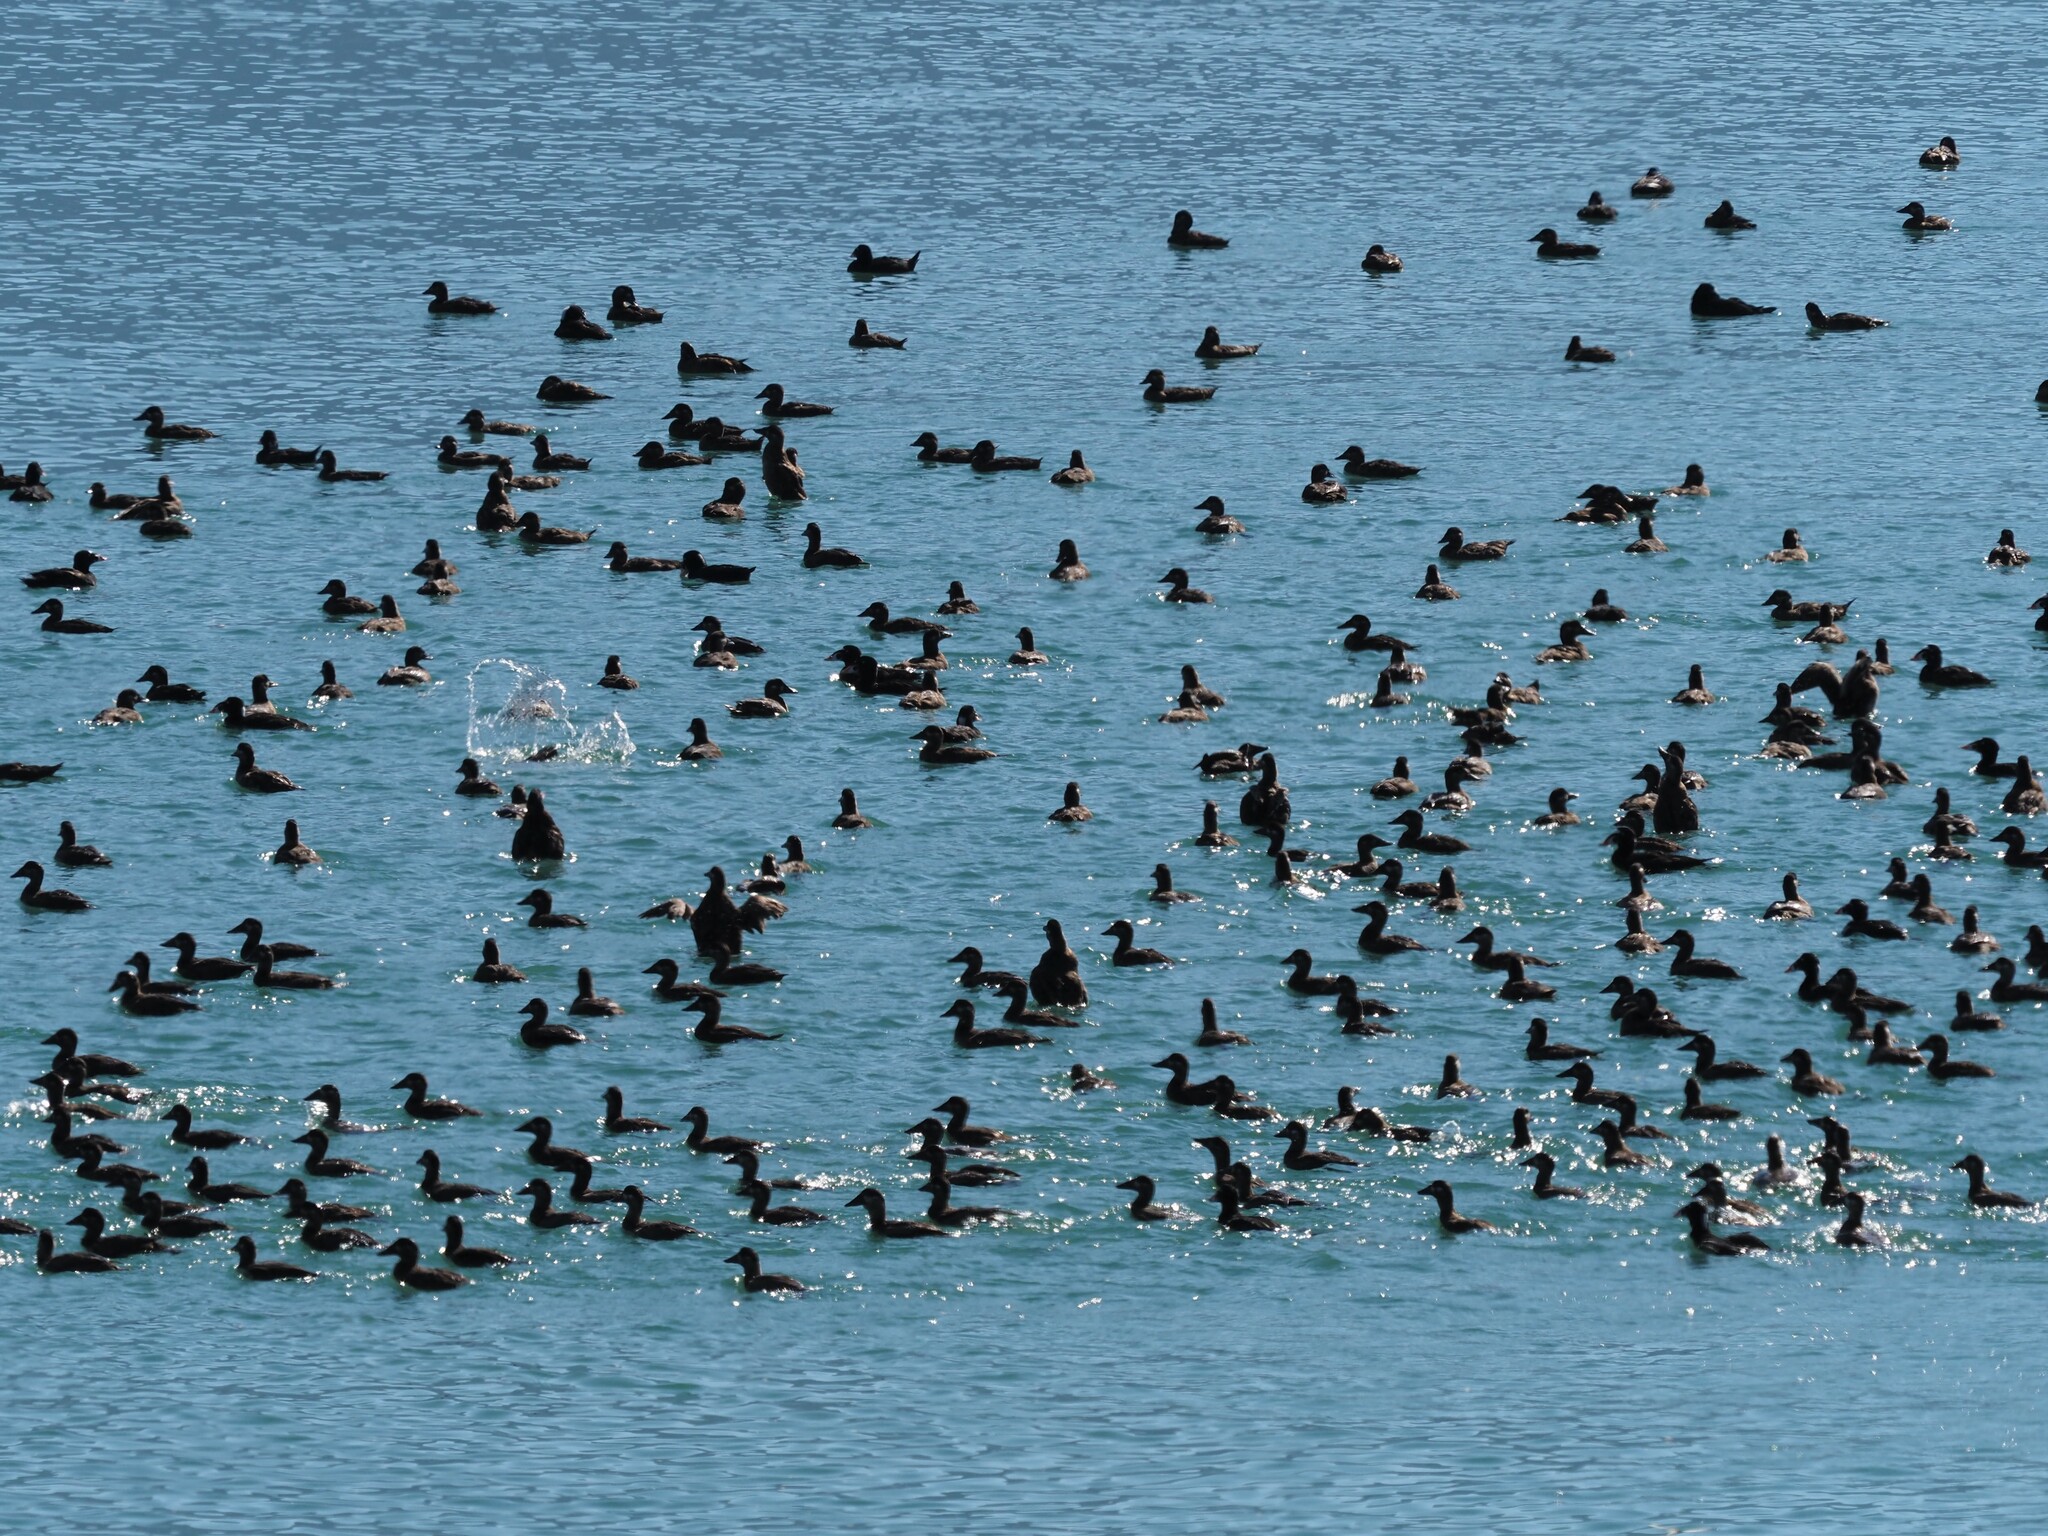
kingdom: Animalia
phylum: Chordata
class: Aves
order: Anseriformes
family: Anatidae
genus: Melanitta
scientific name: Melanitta perspicillata
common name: Surf scoter
